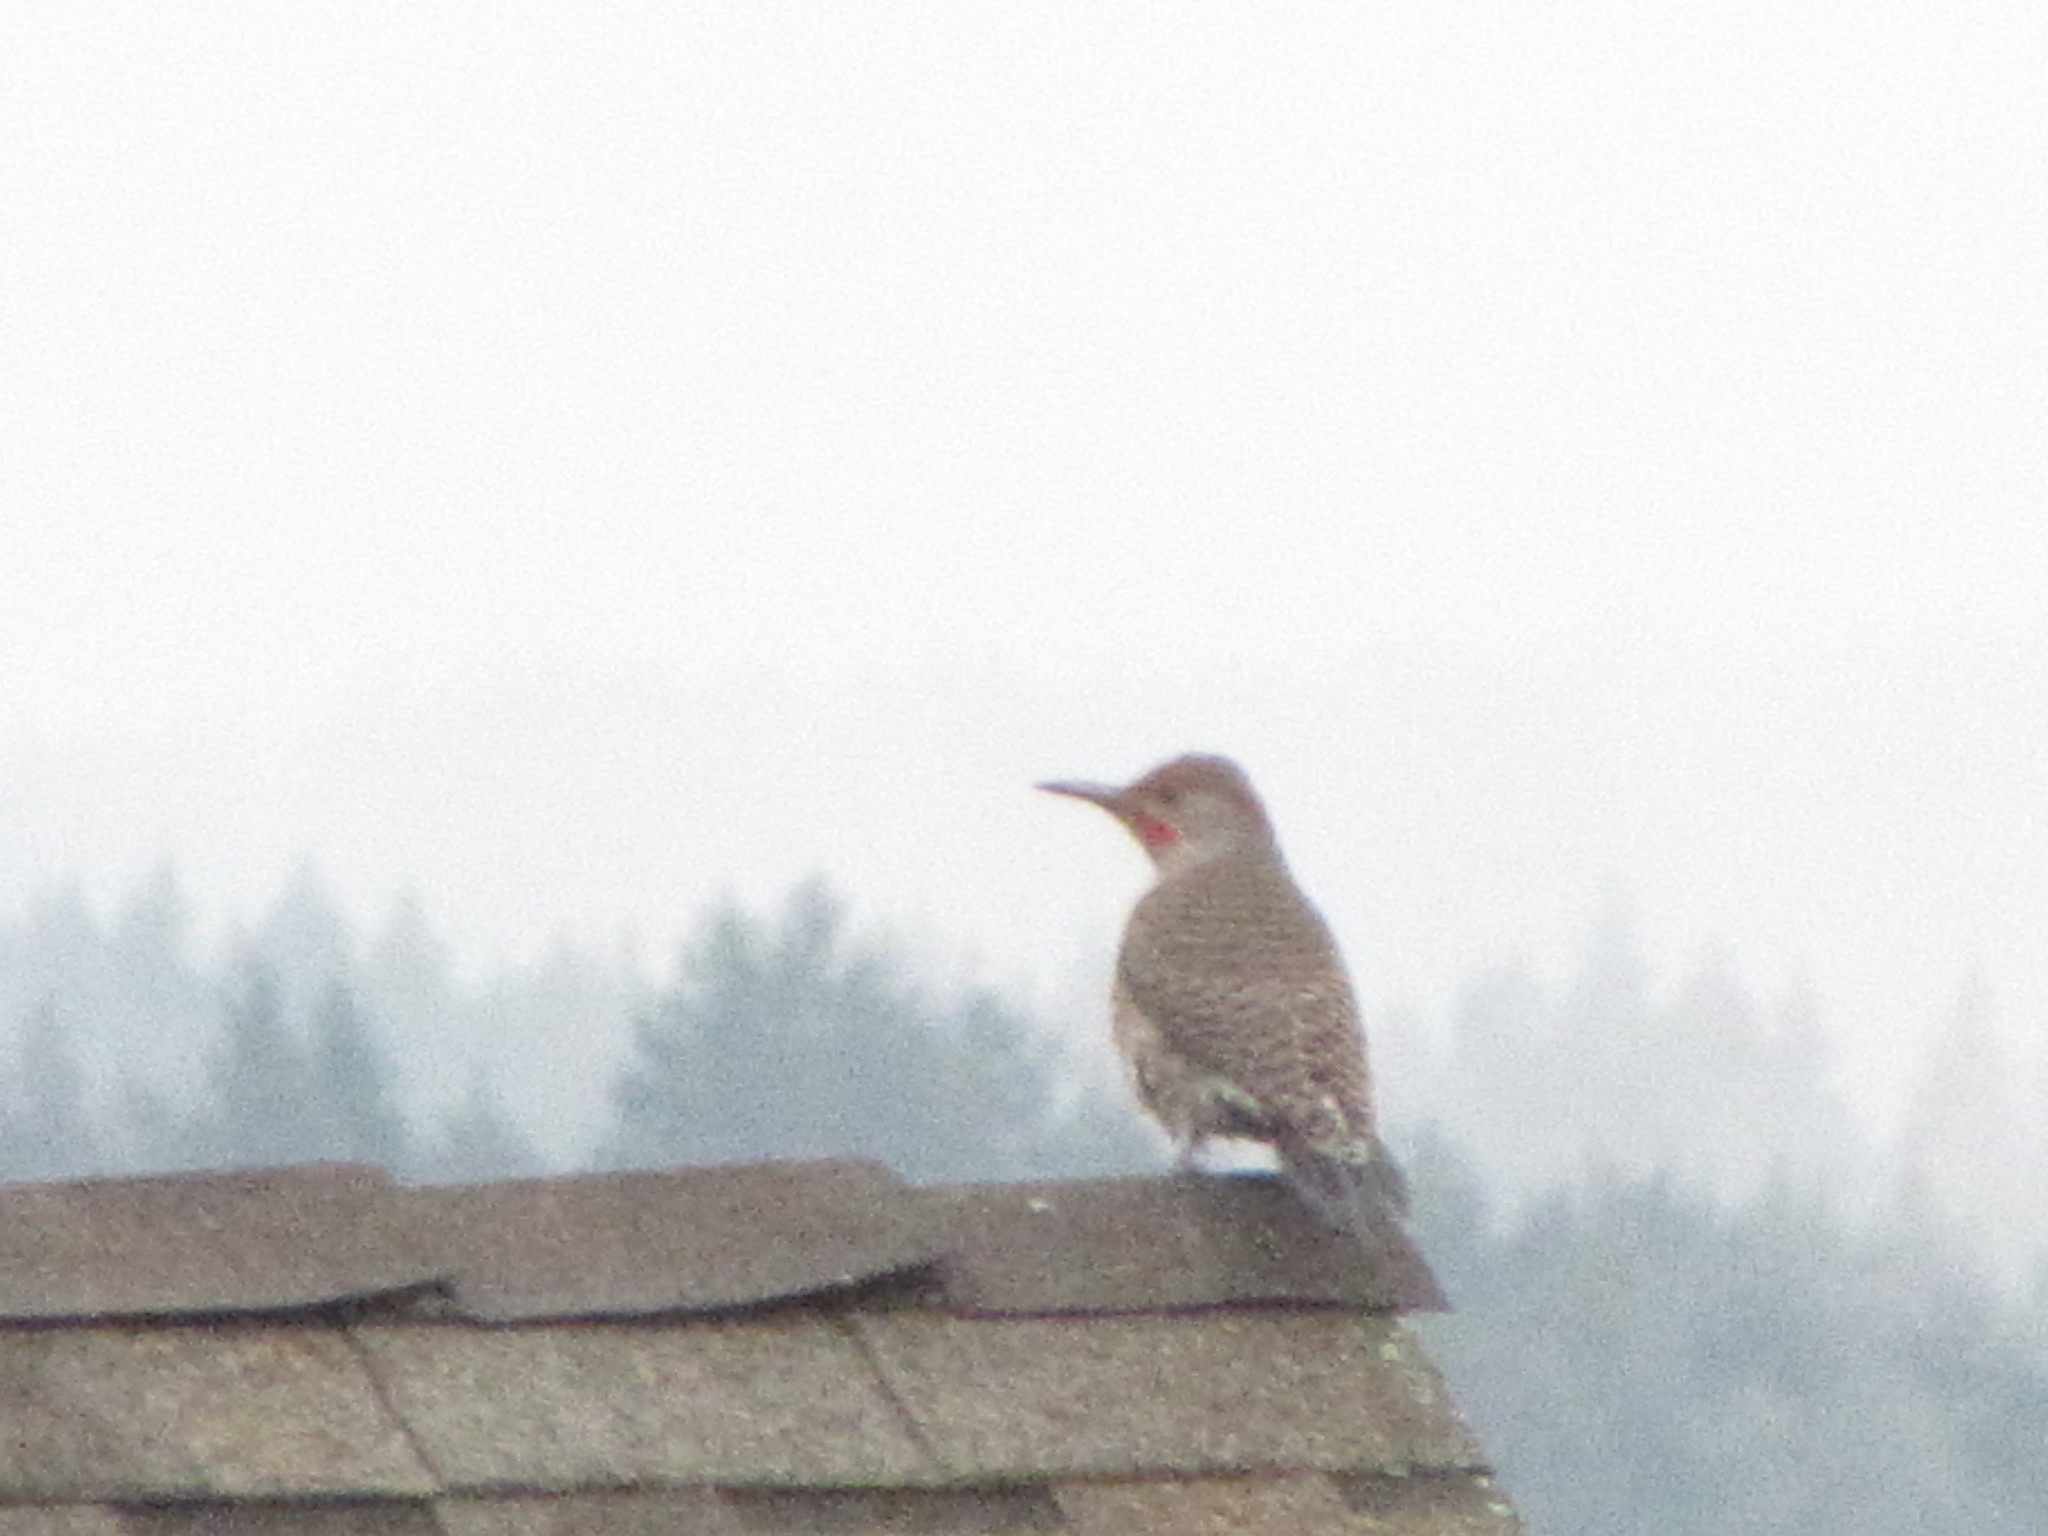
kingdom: Animalia
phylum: Chordata
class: Aves
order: Piciformes
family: Picidae
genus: Colaptes
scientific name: Colaptes auratus
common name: Northern flicker
